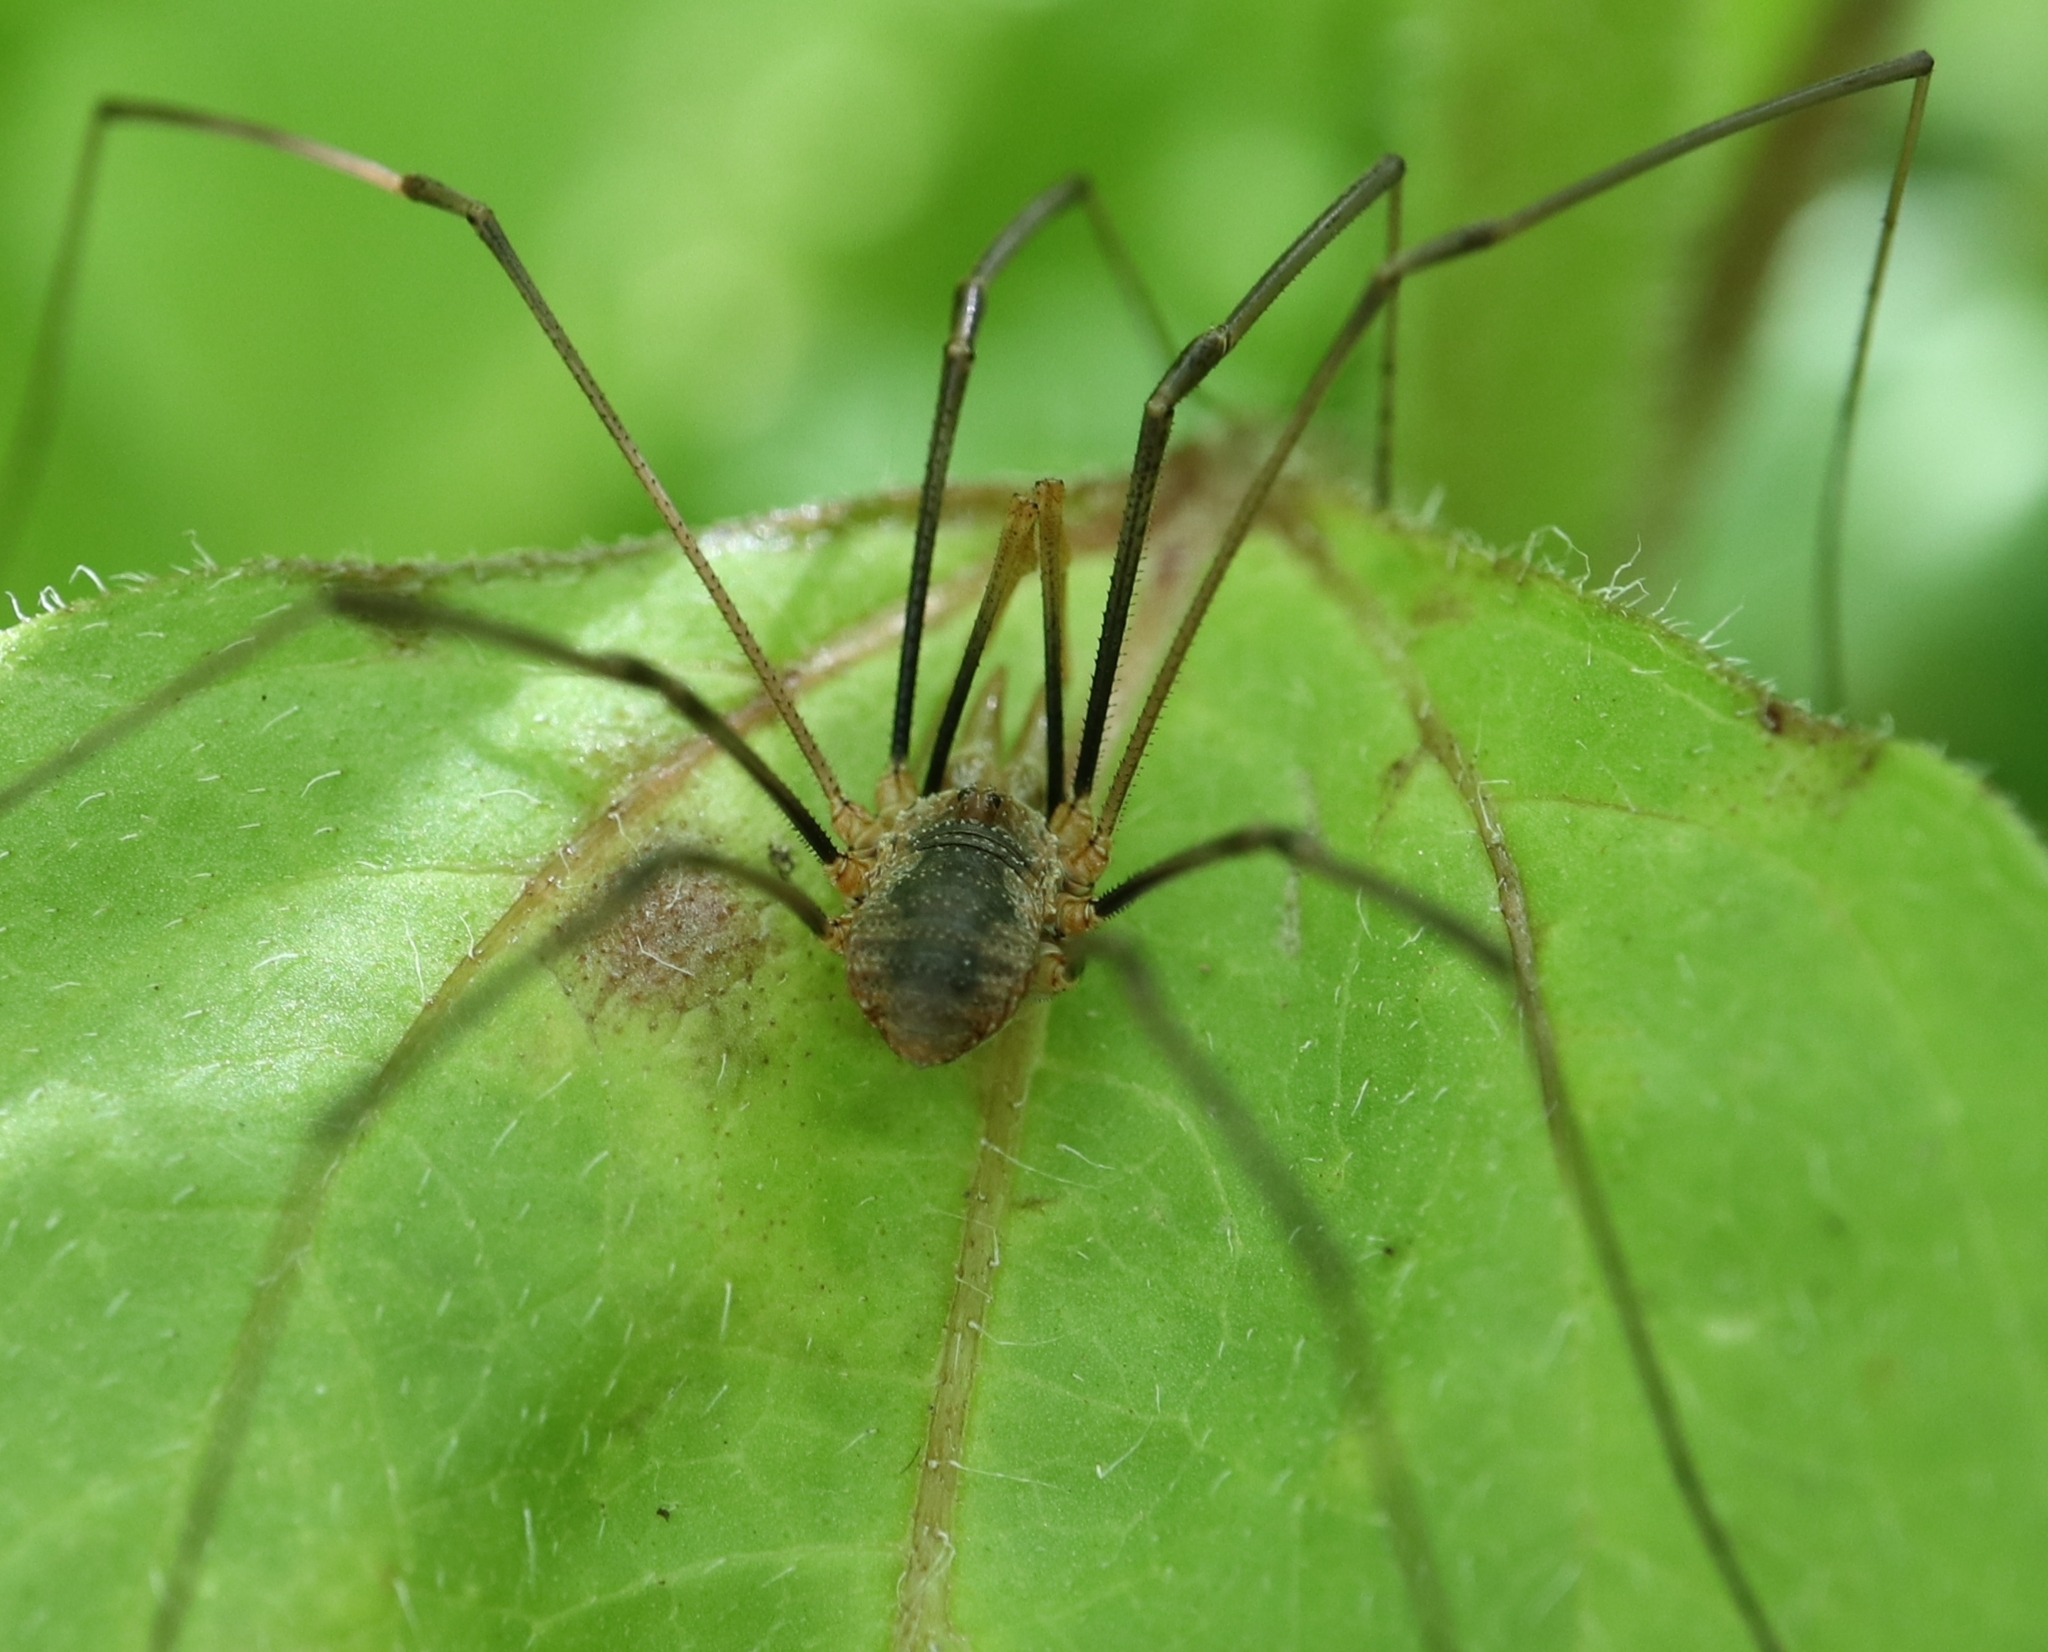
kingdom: Animalia
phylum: Arthropoda
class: Arachnida
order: Opiliones
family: Phalangiidae
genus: Phalangium
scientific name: Phalangium opilio
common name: Daddy longleg
